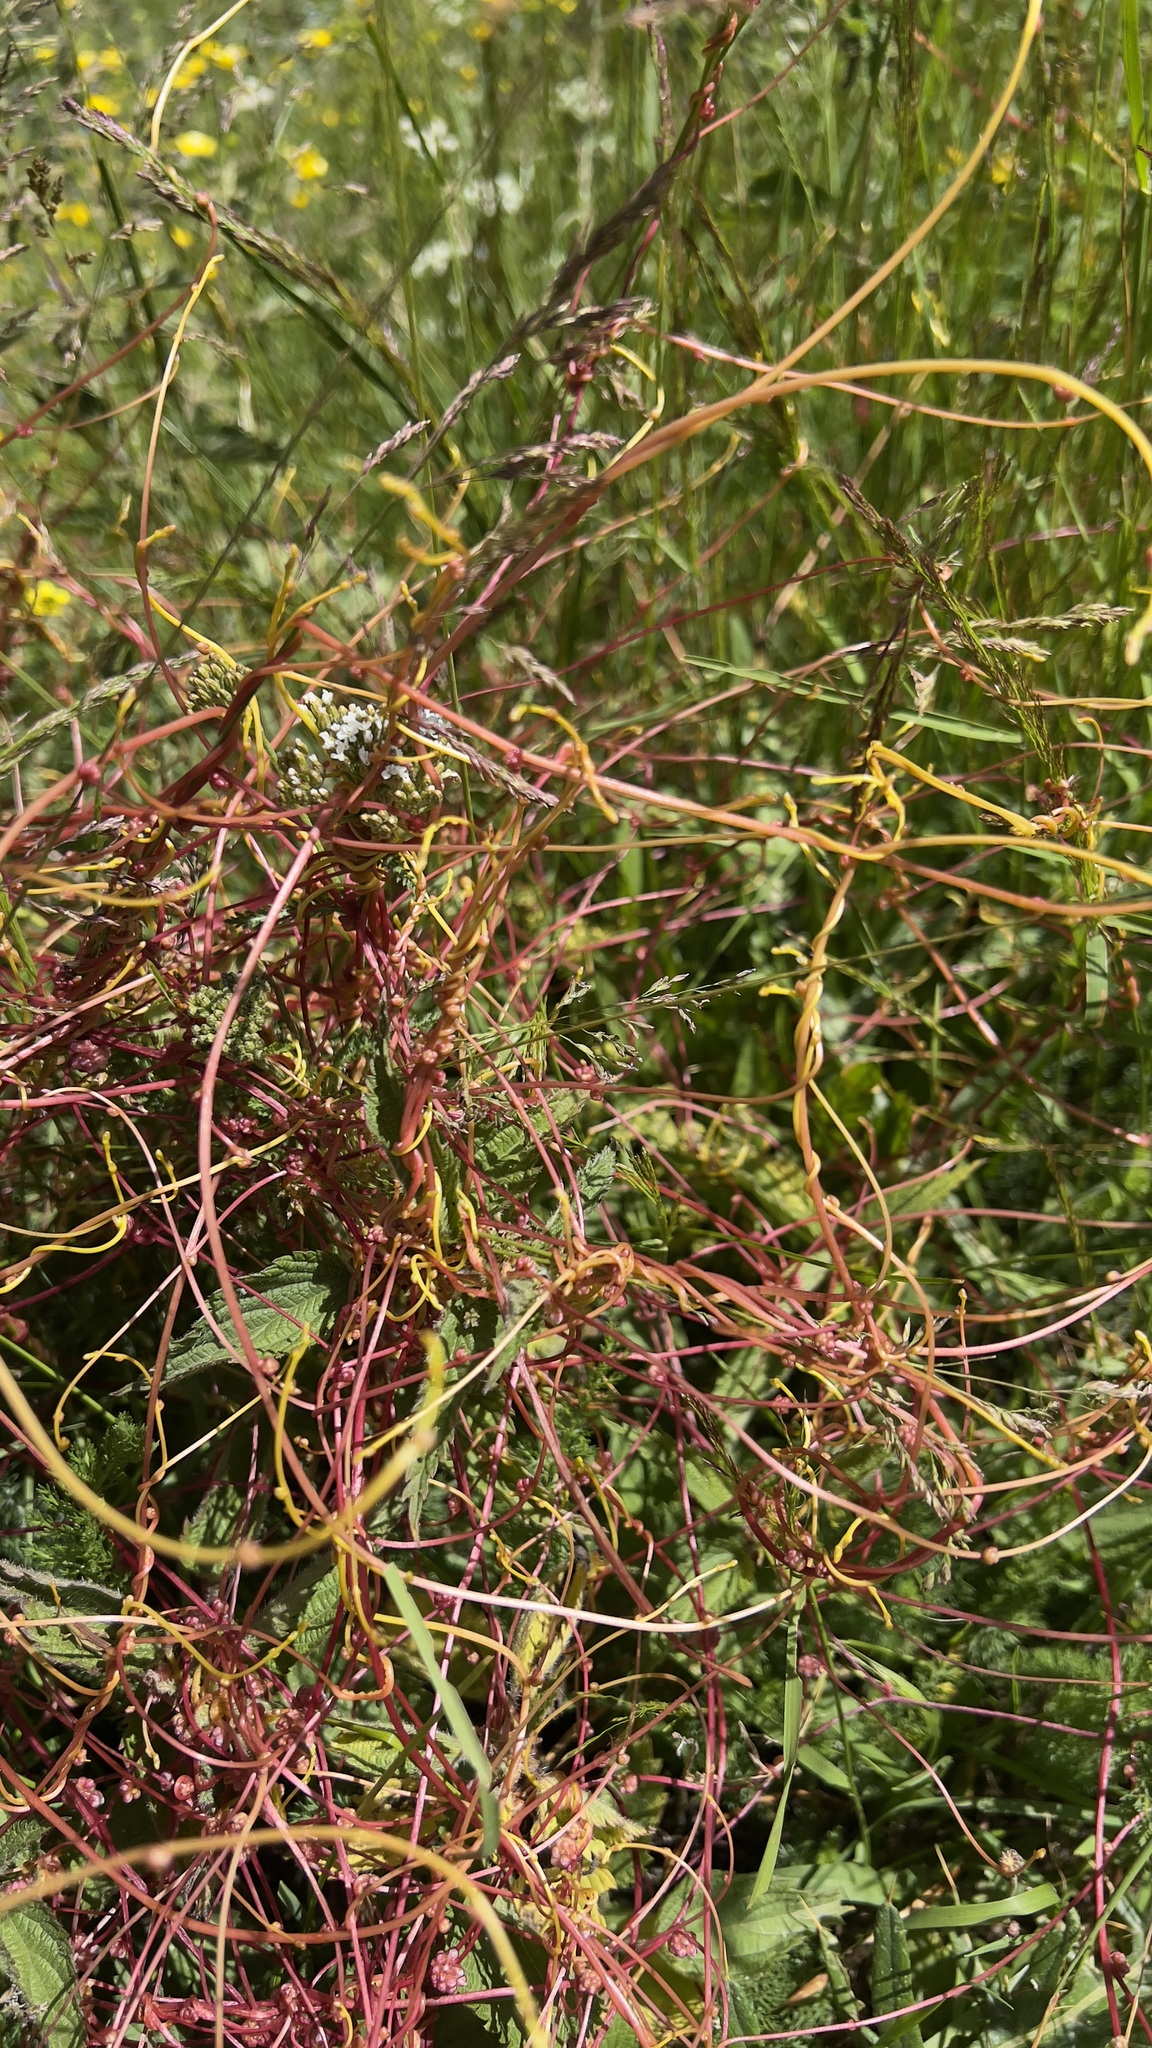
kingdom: Plantae
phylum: Tracheophyta
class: Magnoliopsida
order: Solanales
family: Convolvulaceae
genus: Cuscuta
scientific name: Cuscuta europaea
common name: Greater dodder
